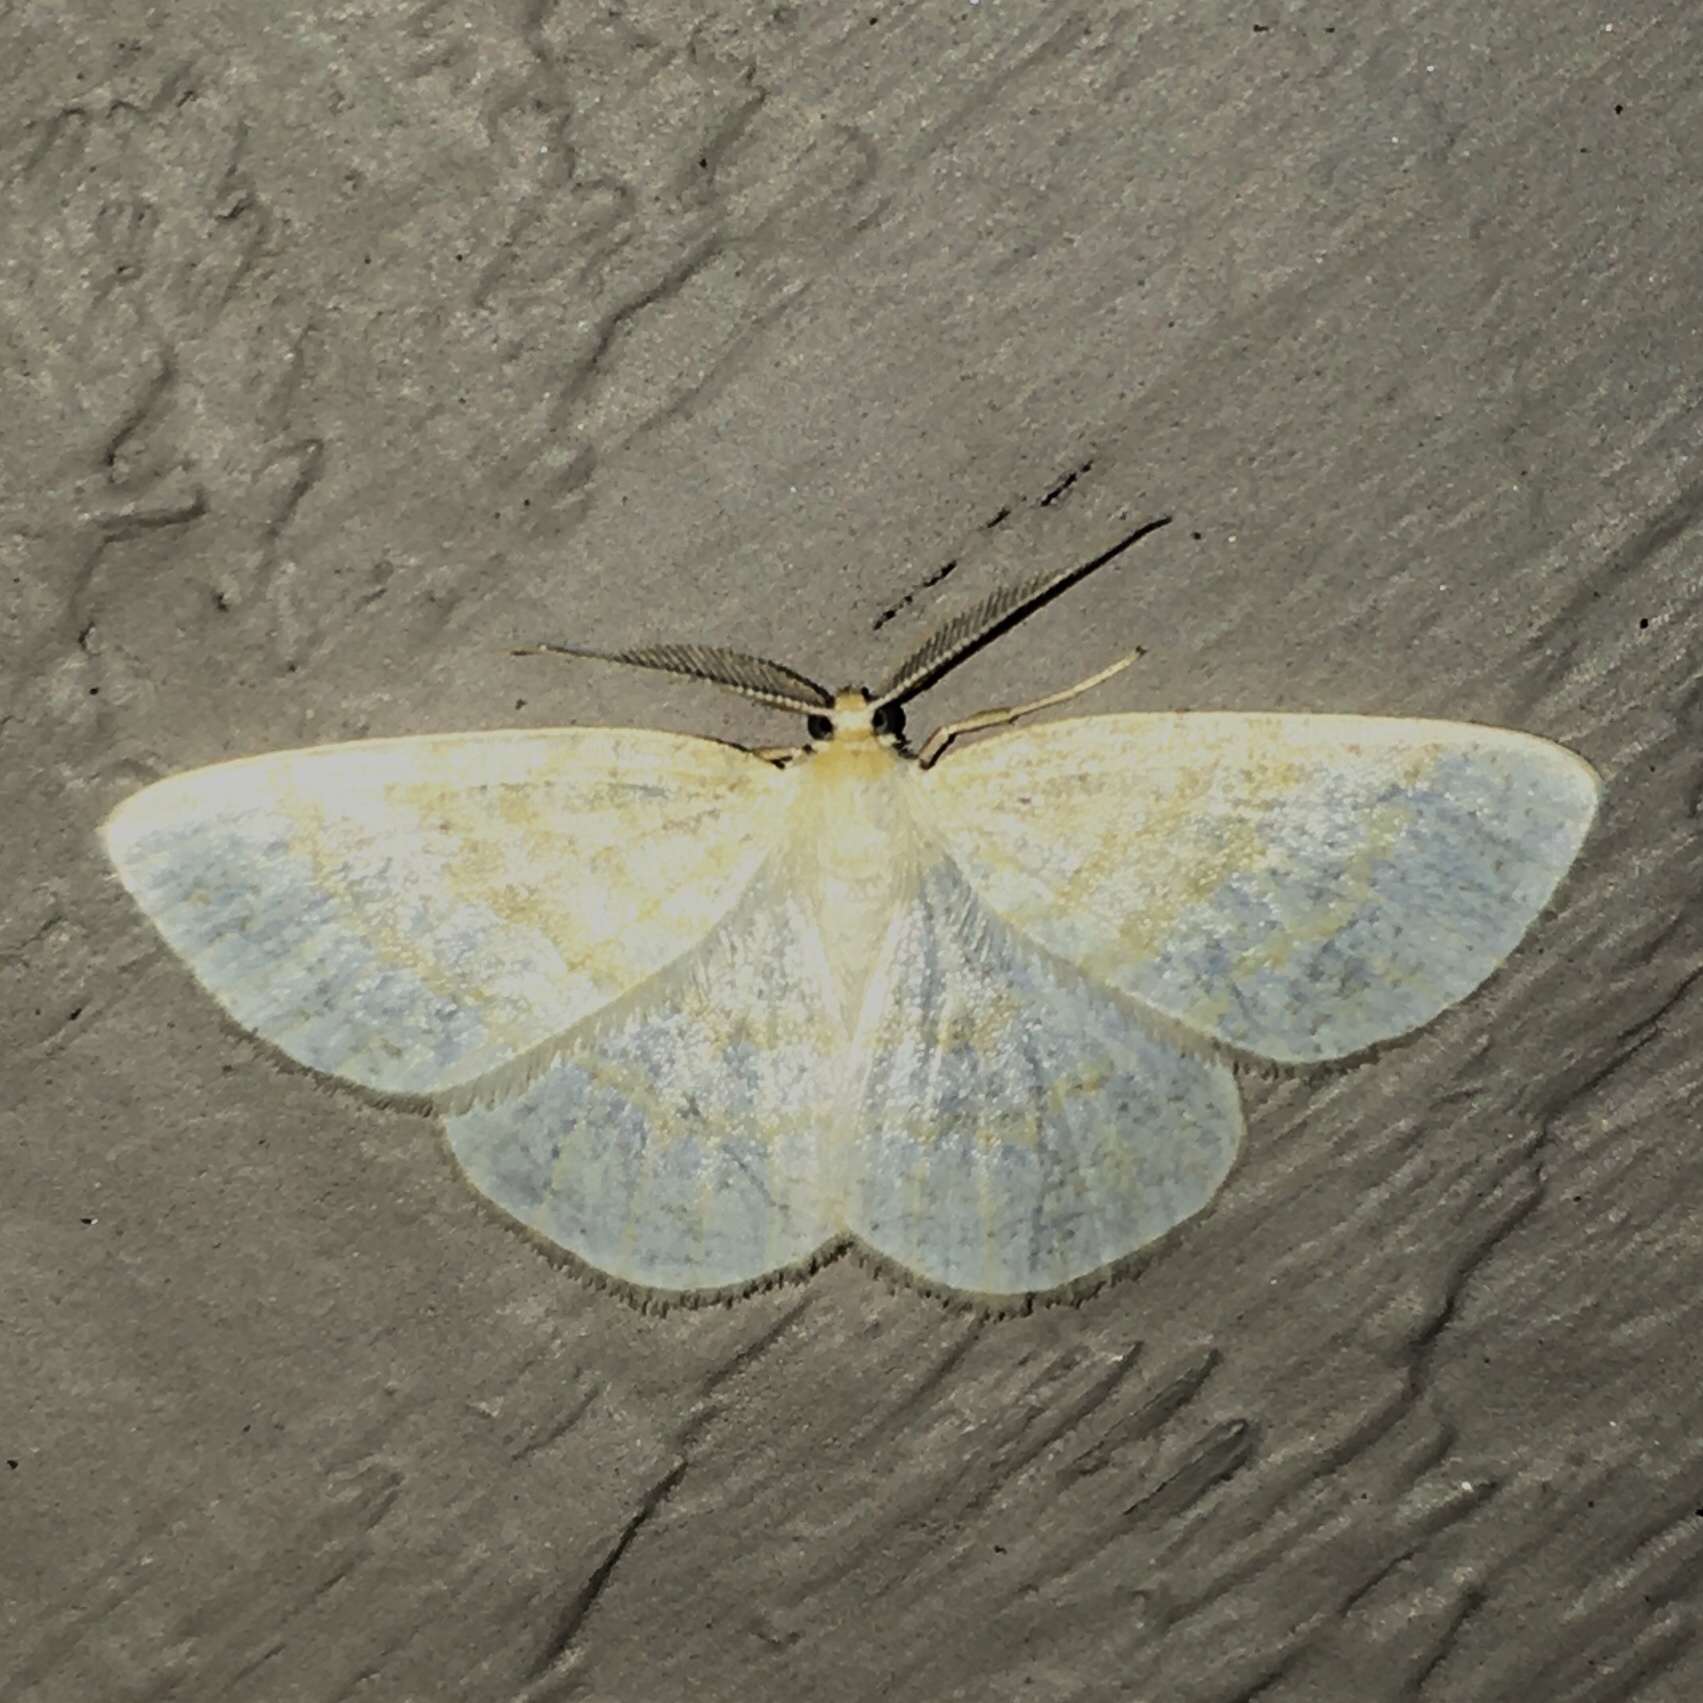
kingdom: Animalia
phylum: Arthropoda
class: Insecta
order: Lepidoptera
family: Geometridae
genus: Cabera
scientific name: Cabera erythemaria
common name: Yellow-dusted cream moth
